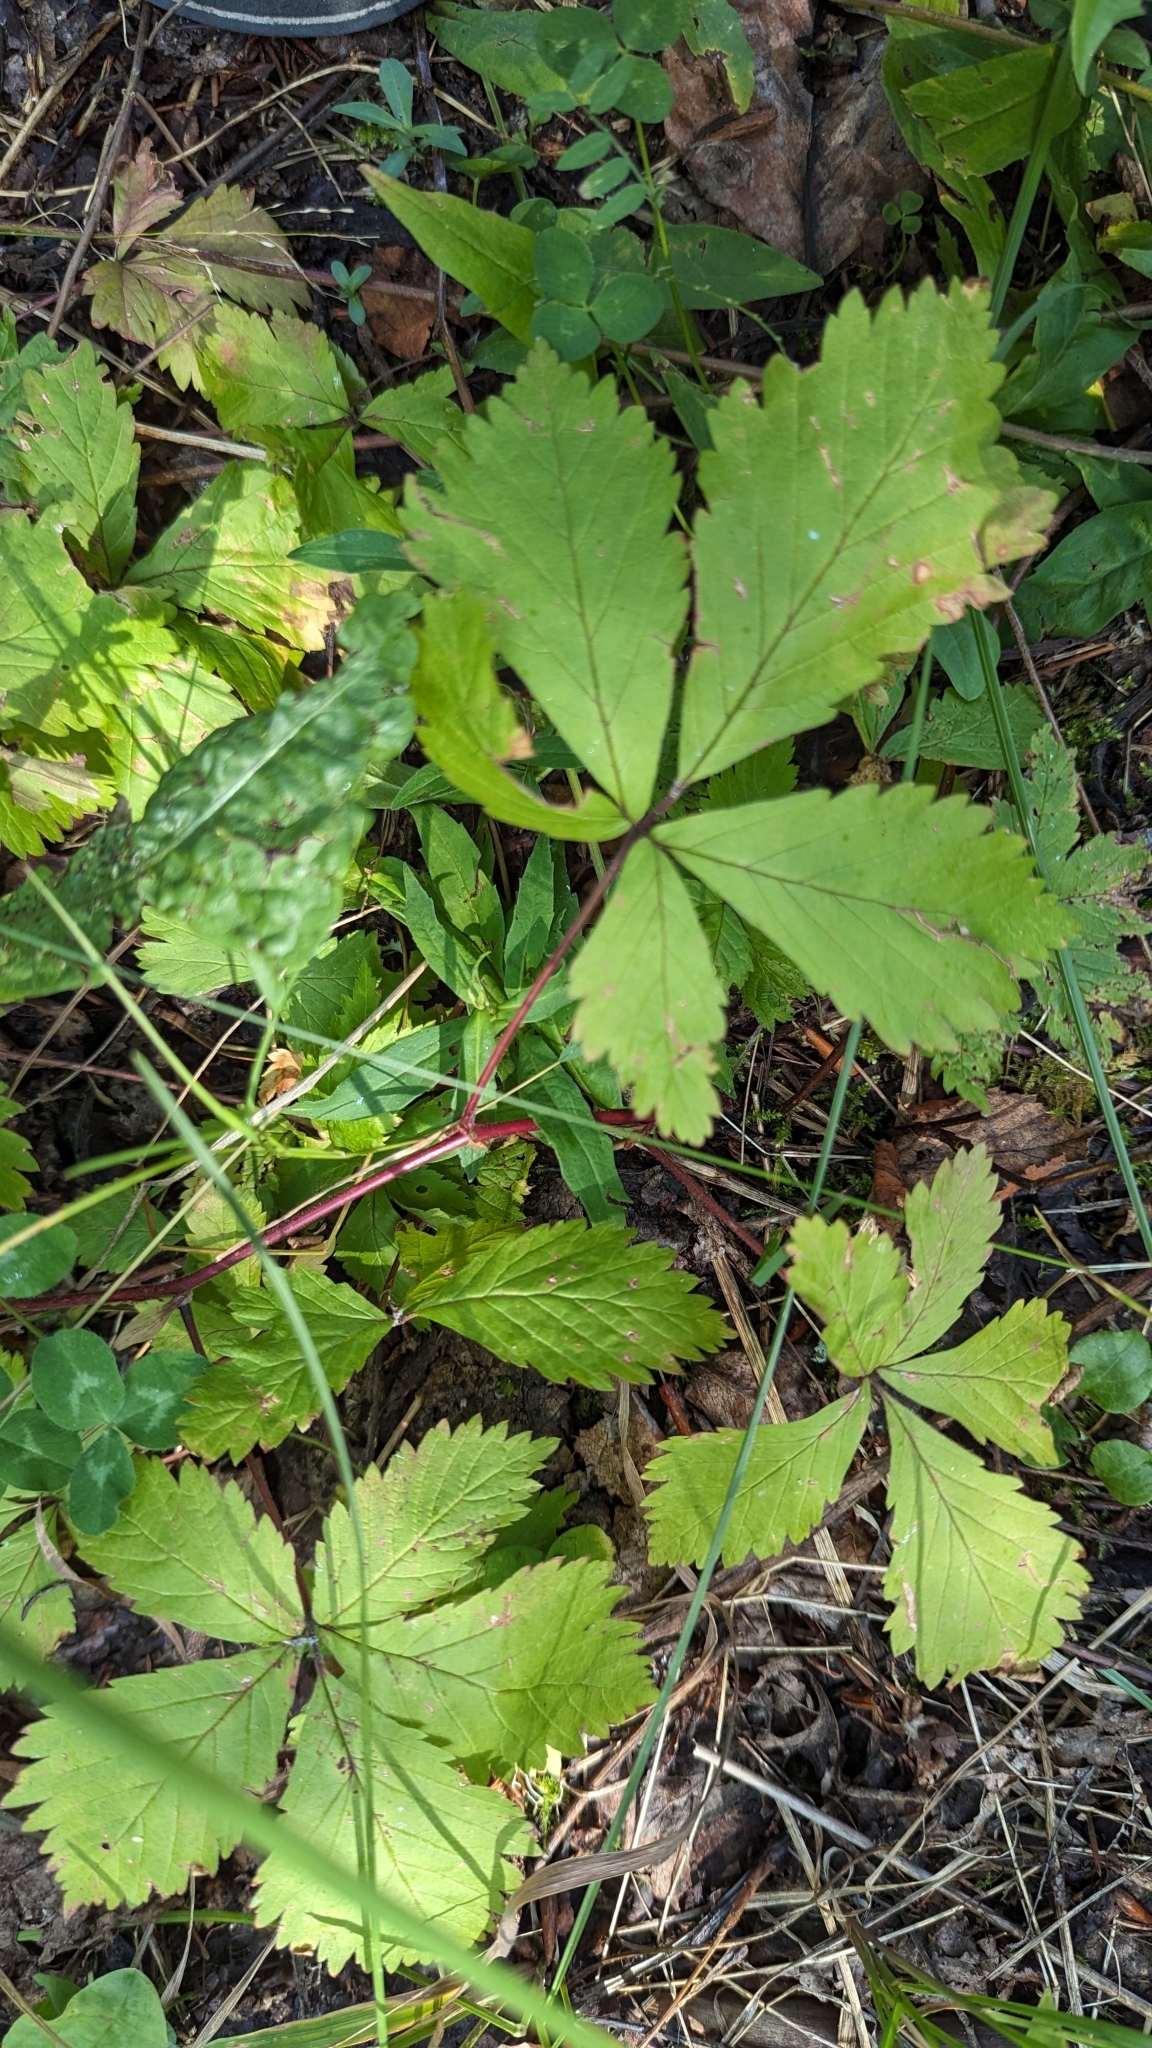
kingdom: Plantae
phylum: Tracheophyta
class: Magnoliopsida
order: Rosales
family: Rosaceae
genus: Rubus
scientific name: Rubus pubescens
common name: Dwarf raspberry
